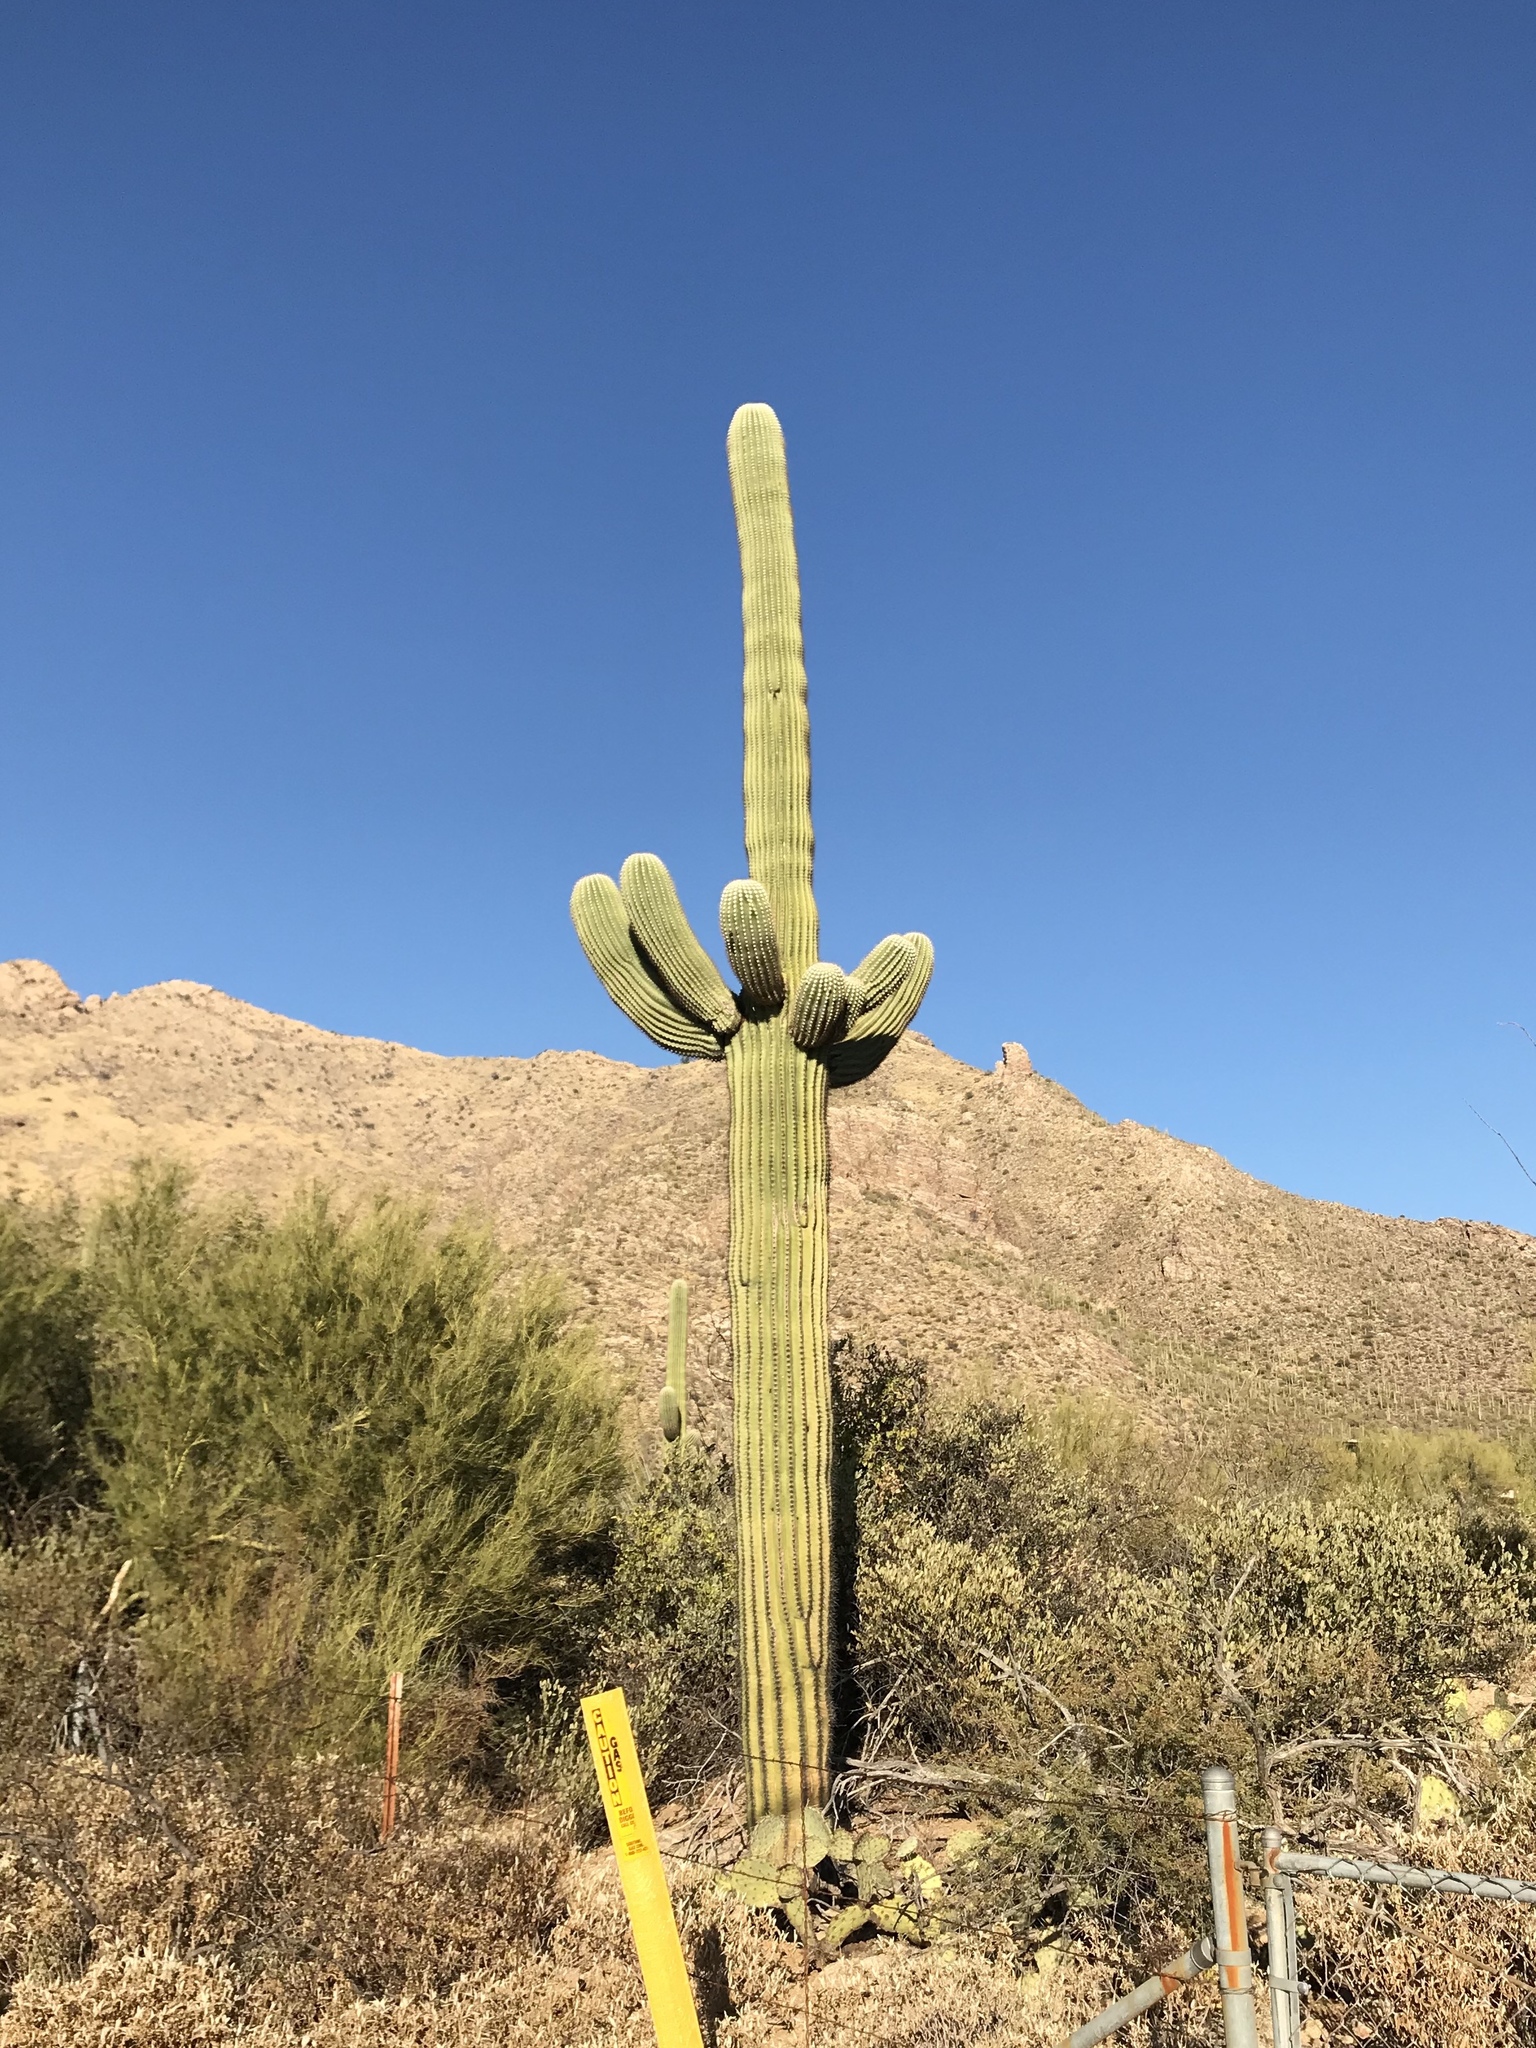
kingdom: Plantae
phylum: Tracheophyta
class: Magnoliopsida
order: Caryophyllales
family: Cactaceae
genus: Carnegiea
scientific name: Carnegiea gigantea
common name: Saguaro
